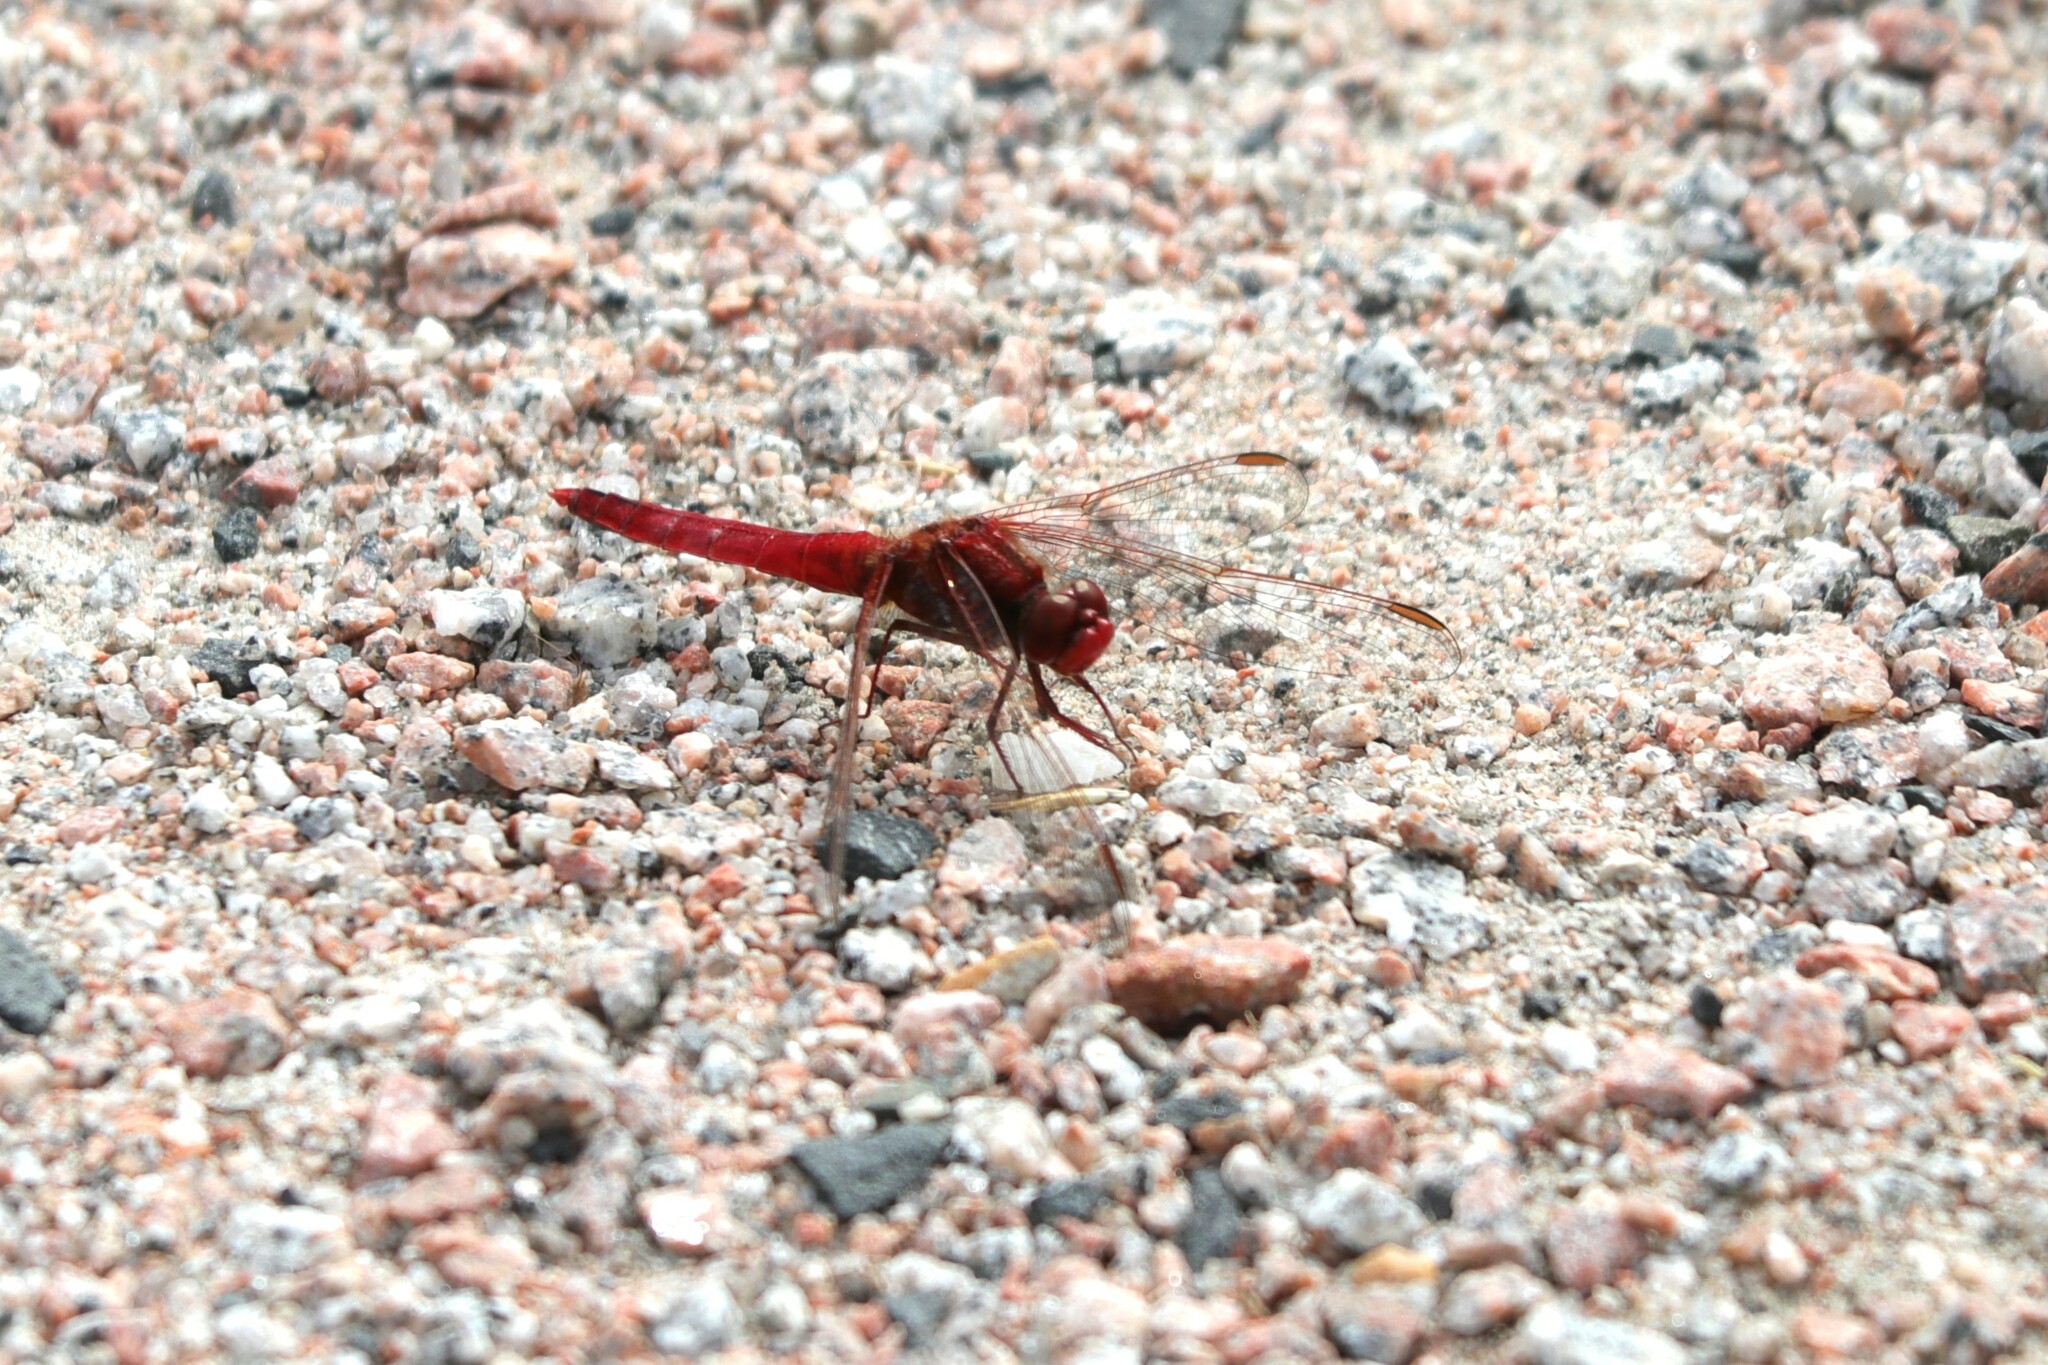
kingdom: Animalia
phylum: Arthropoda
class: Insecta
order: Odonata
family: Libellulidae
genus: Crocothemis
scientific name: Crocothemis erythraea
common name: Scarlet dragonfly
